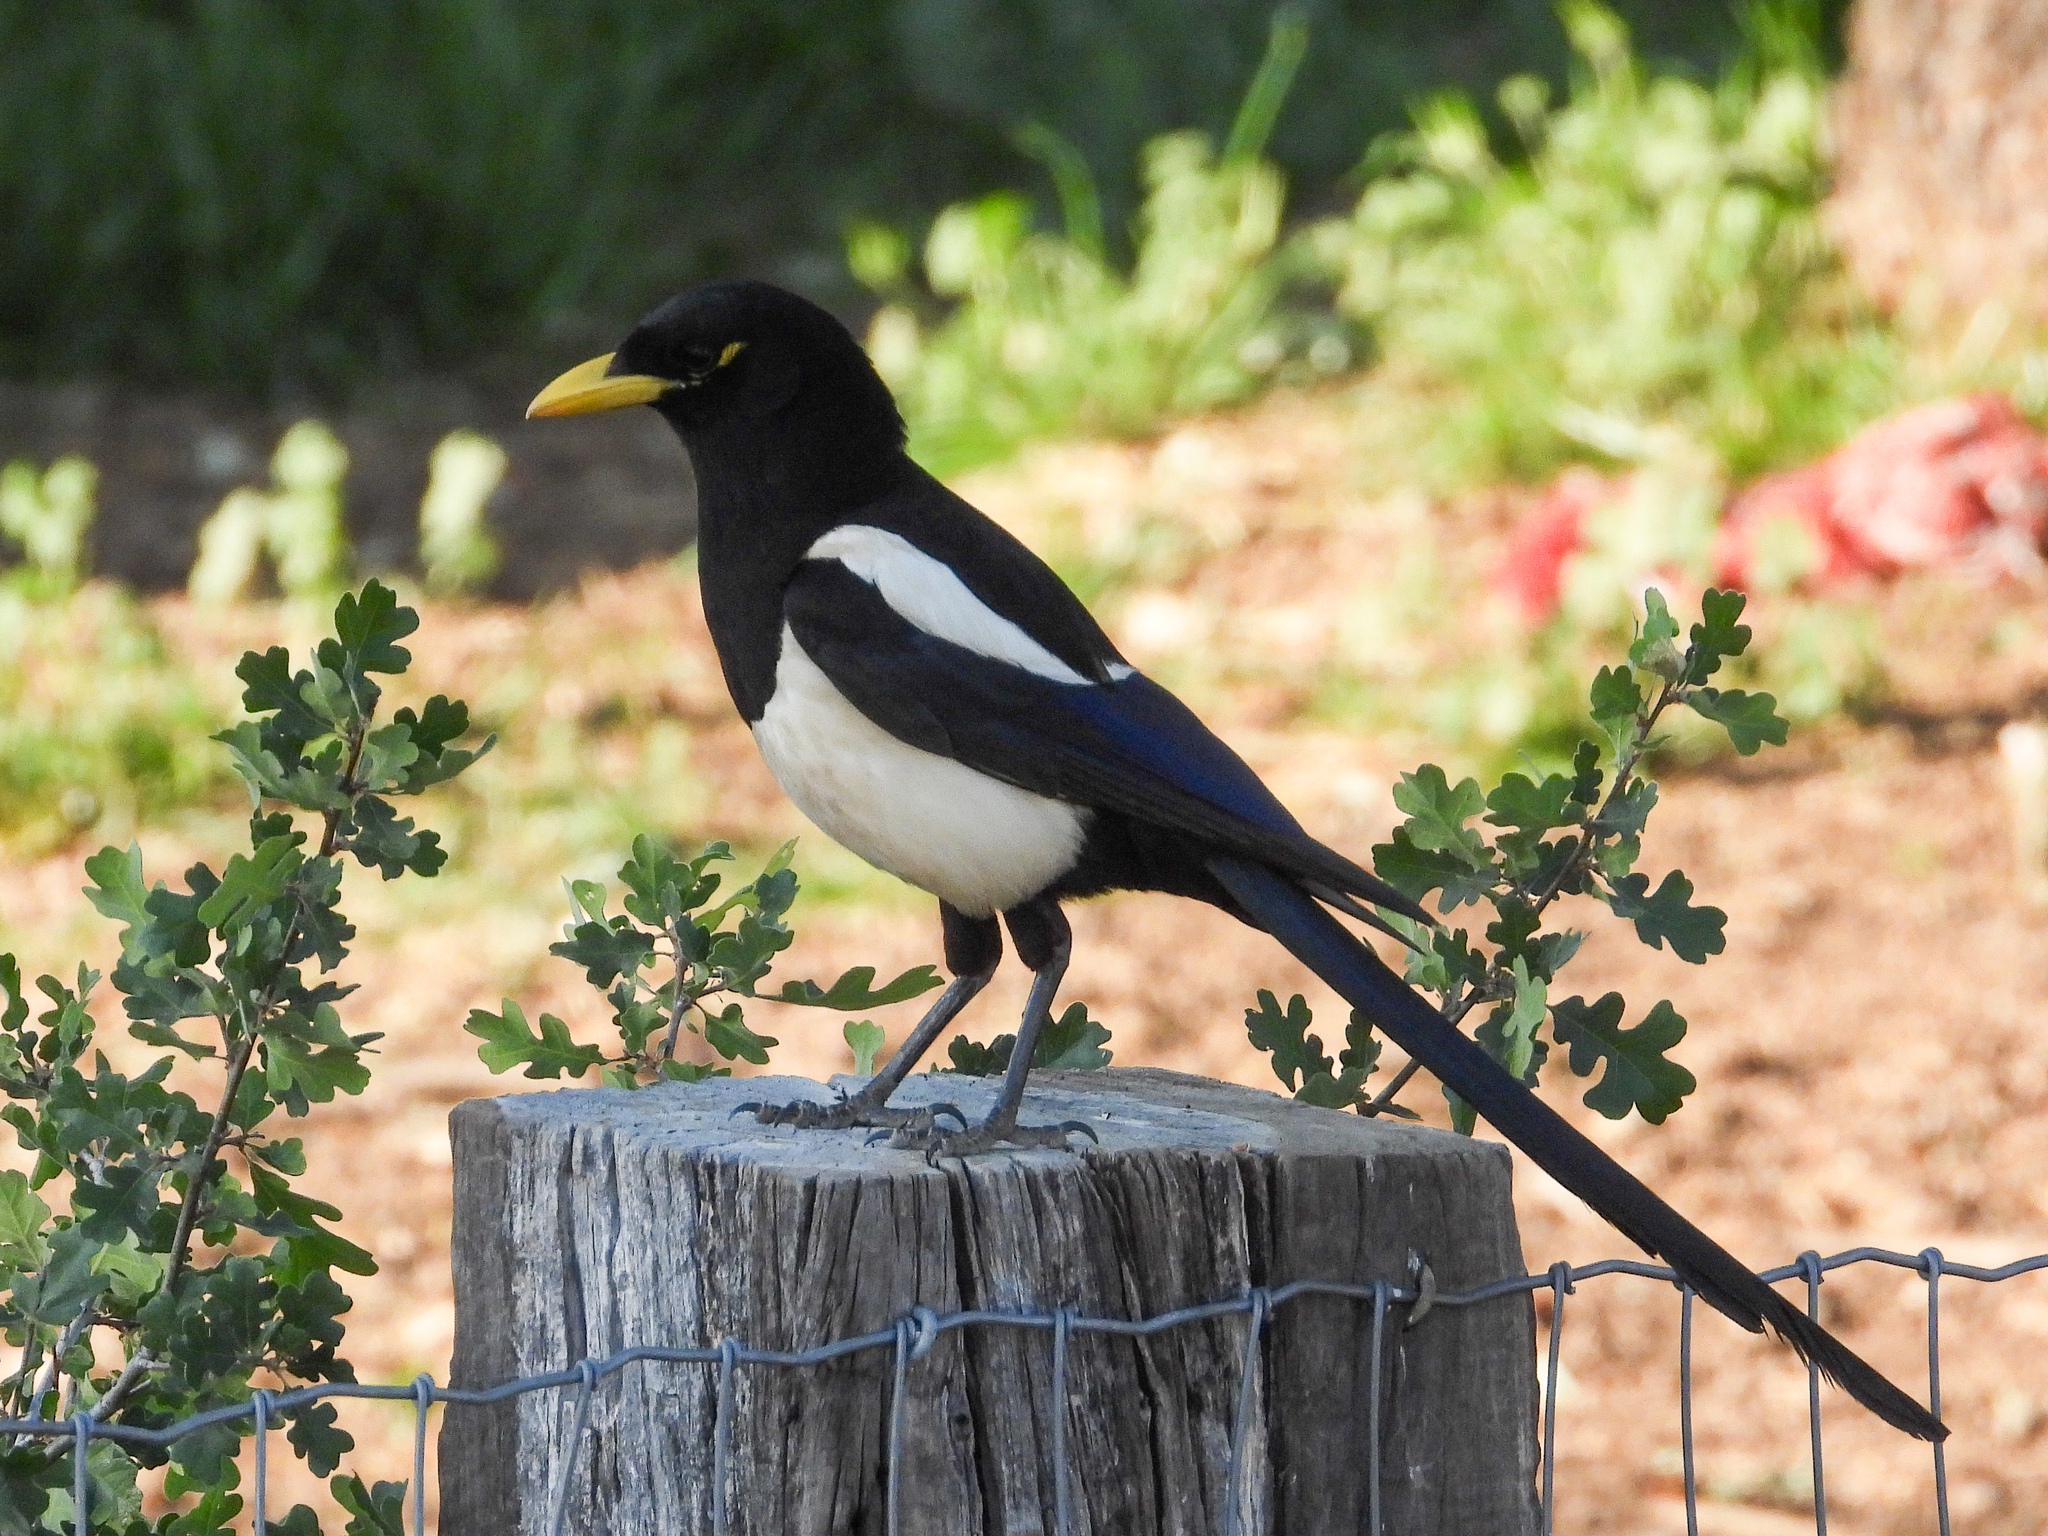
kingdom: Animalia
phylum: Chordata
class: Aves
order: Passeriformes
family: Corvidae
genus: Pica
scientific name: Pica nuttalli
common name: Yellow-billed magpie
